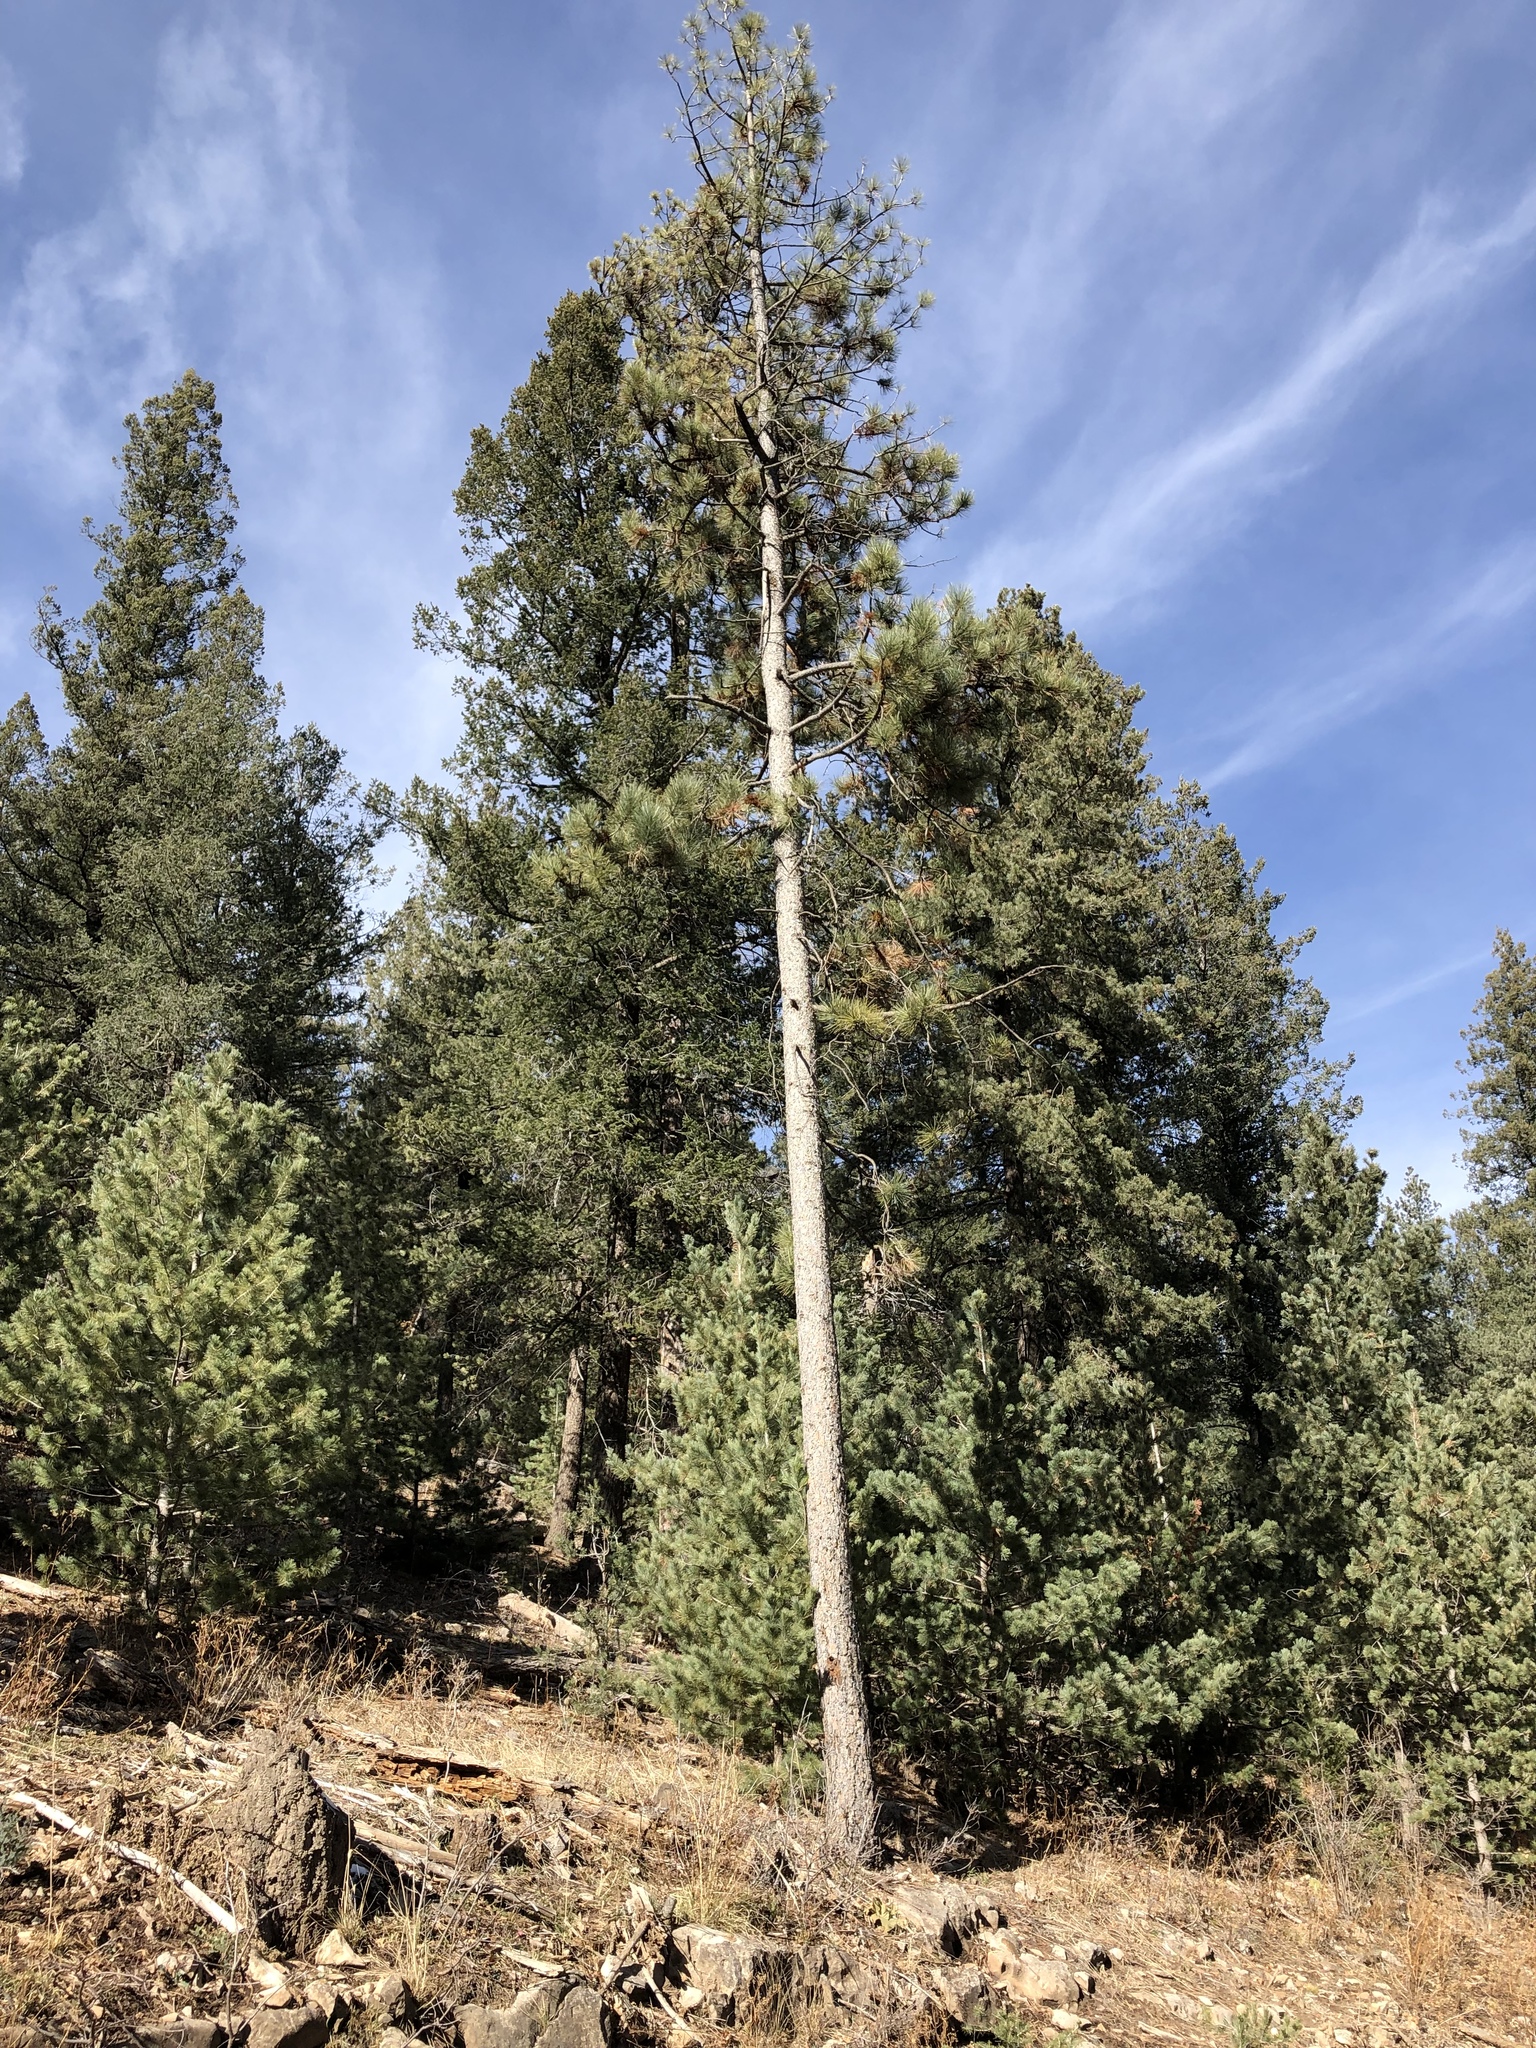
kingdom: Plantae
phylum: Tracheophyta
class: Pinopsida
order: Pinales
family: Pinaceae
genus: Pinus
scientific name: Pinus ponderosa
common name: Western yellow-pine
